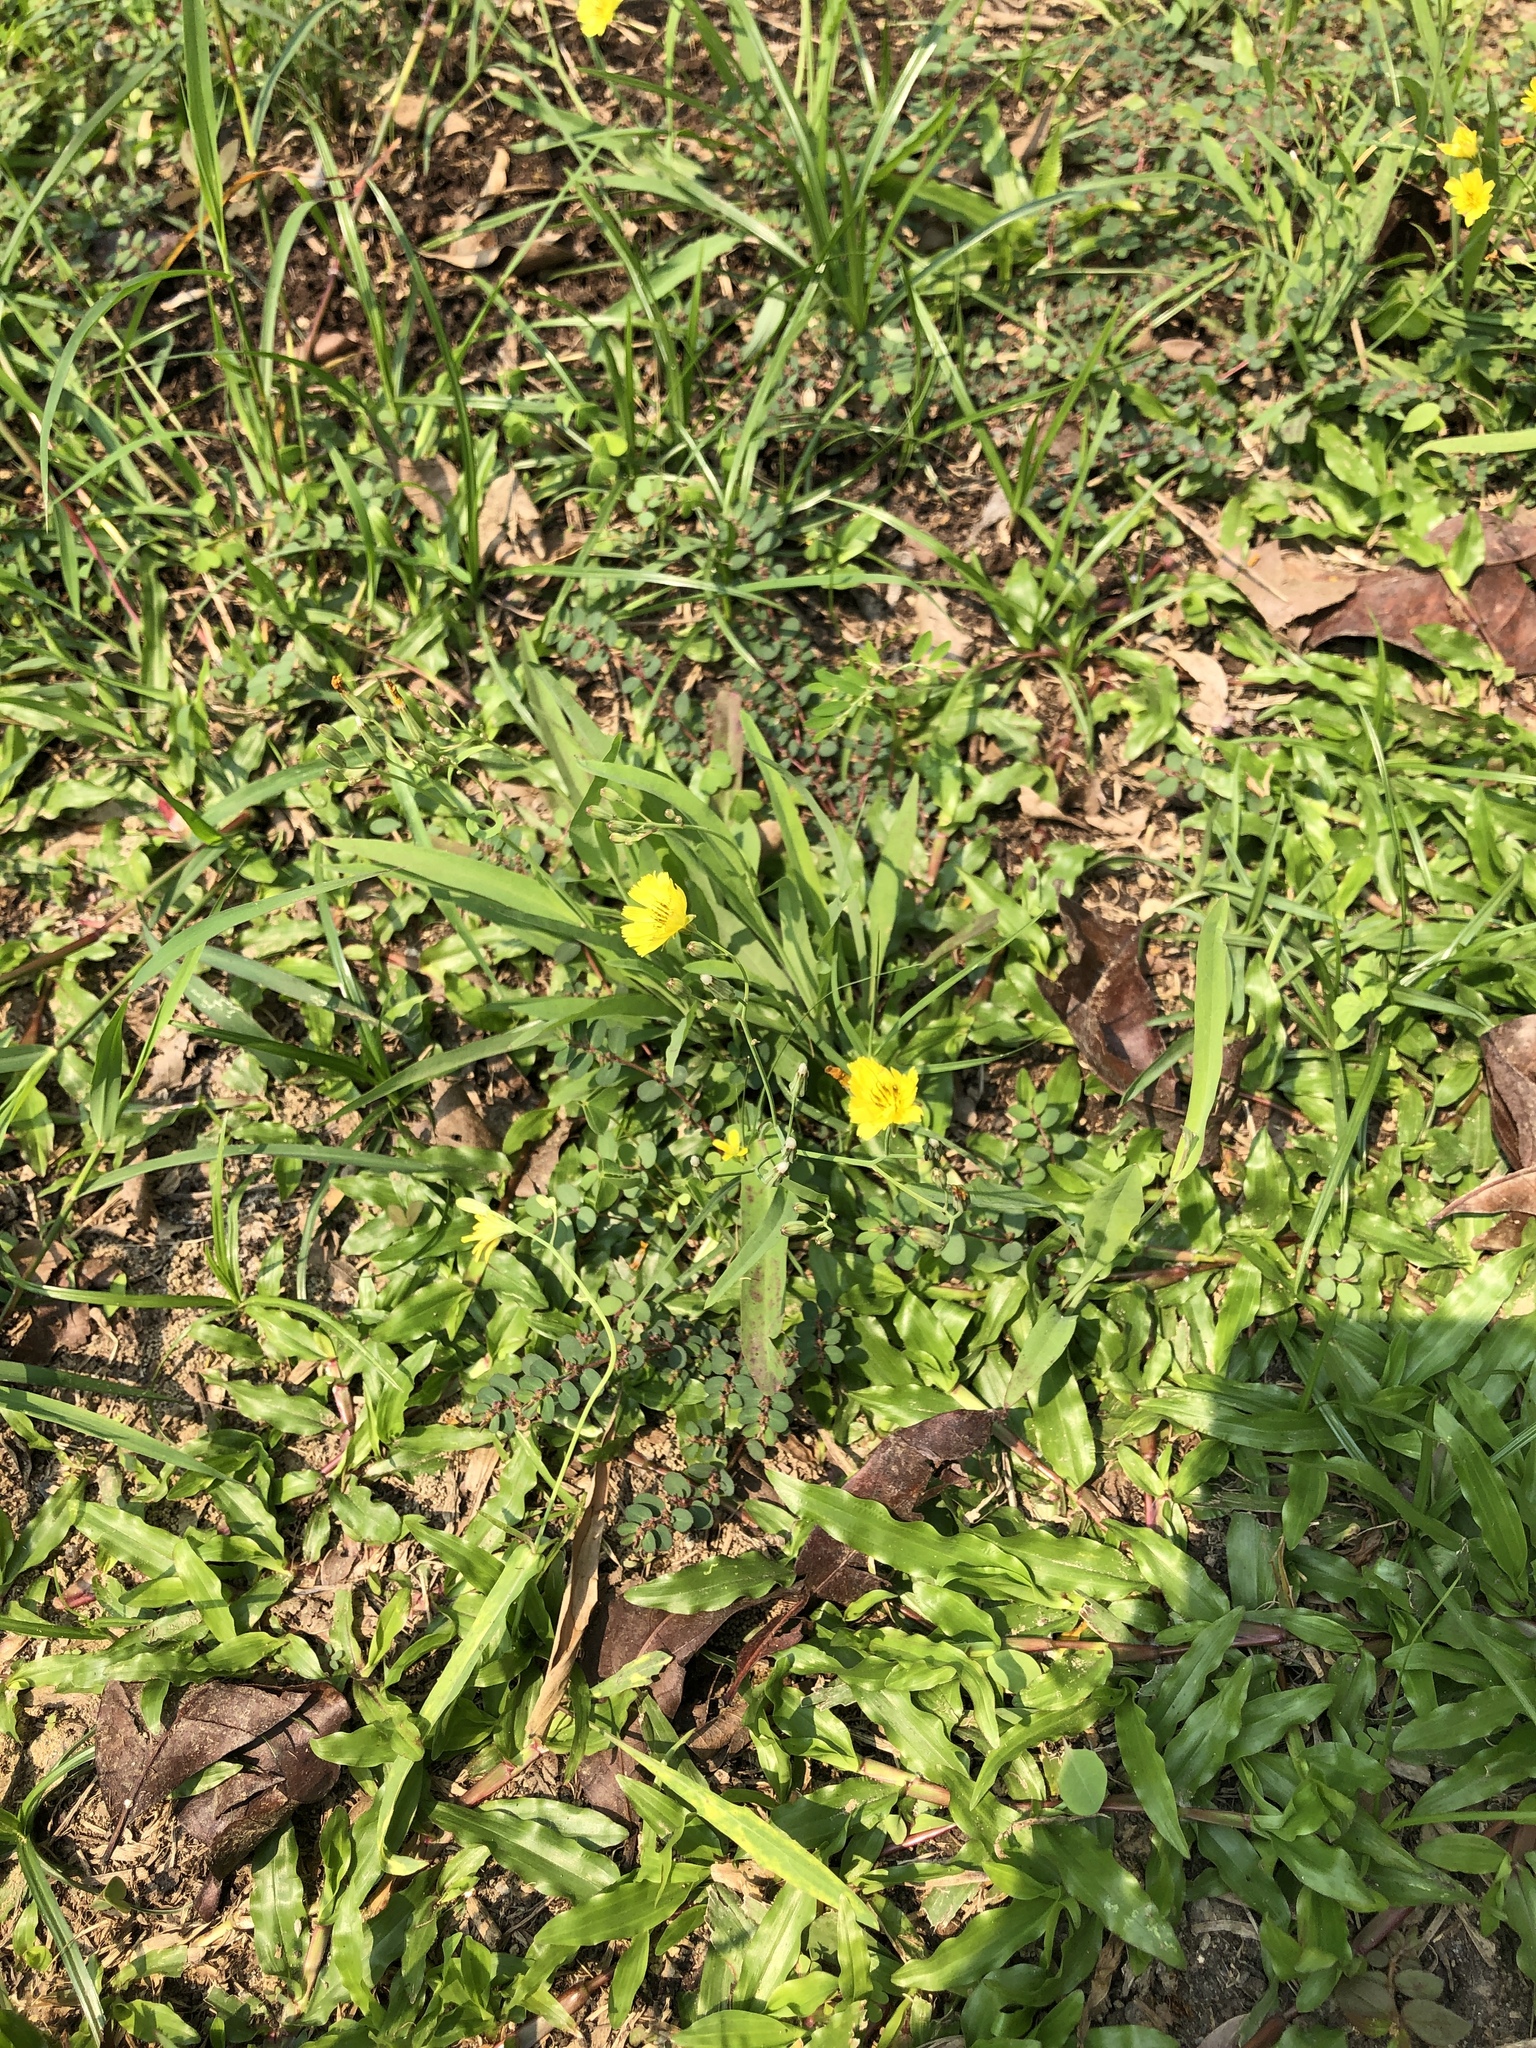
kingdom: Plantae
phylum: Tracheophyta
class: Magnoliopsida
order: Asterales
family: Asteraceae
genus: Ixeris
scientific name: Ixeris chinensis
